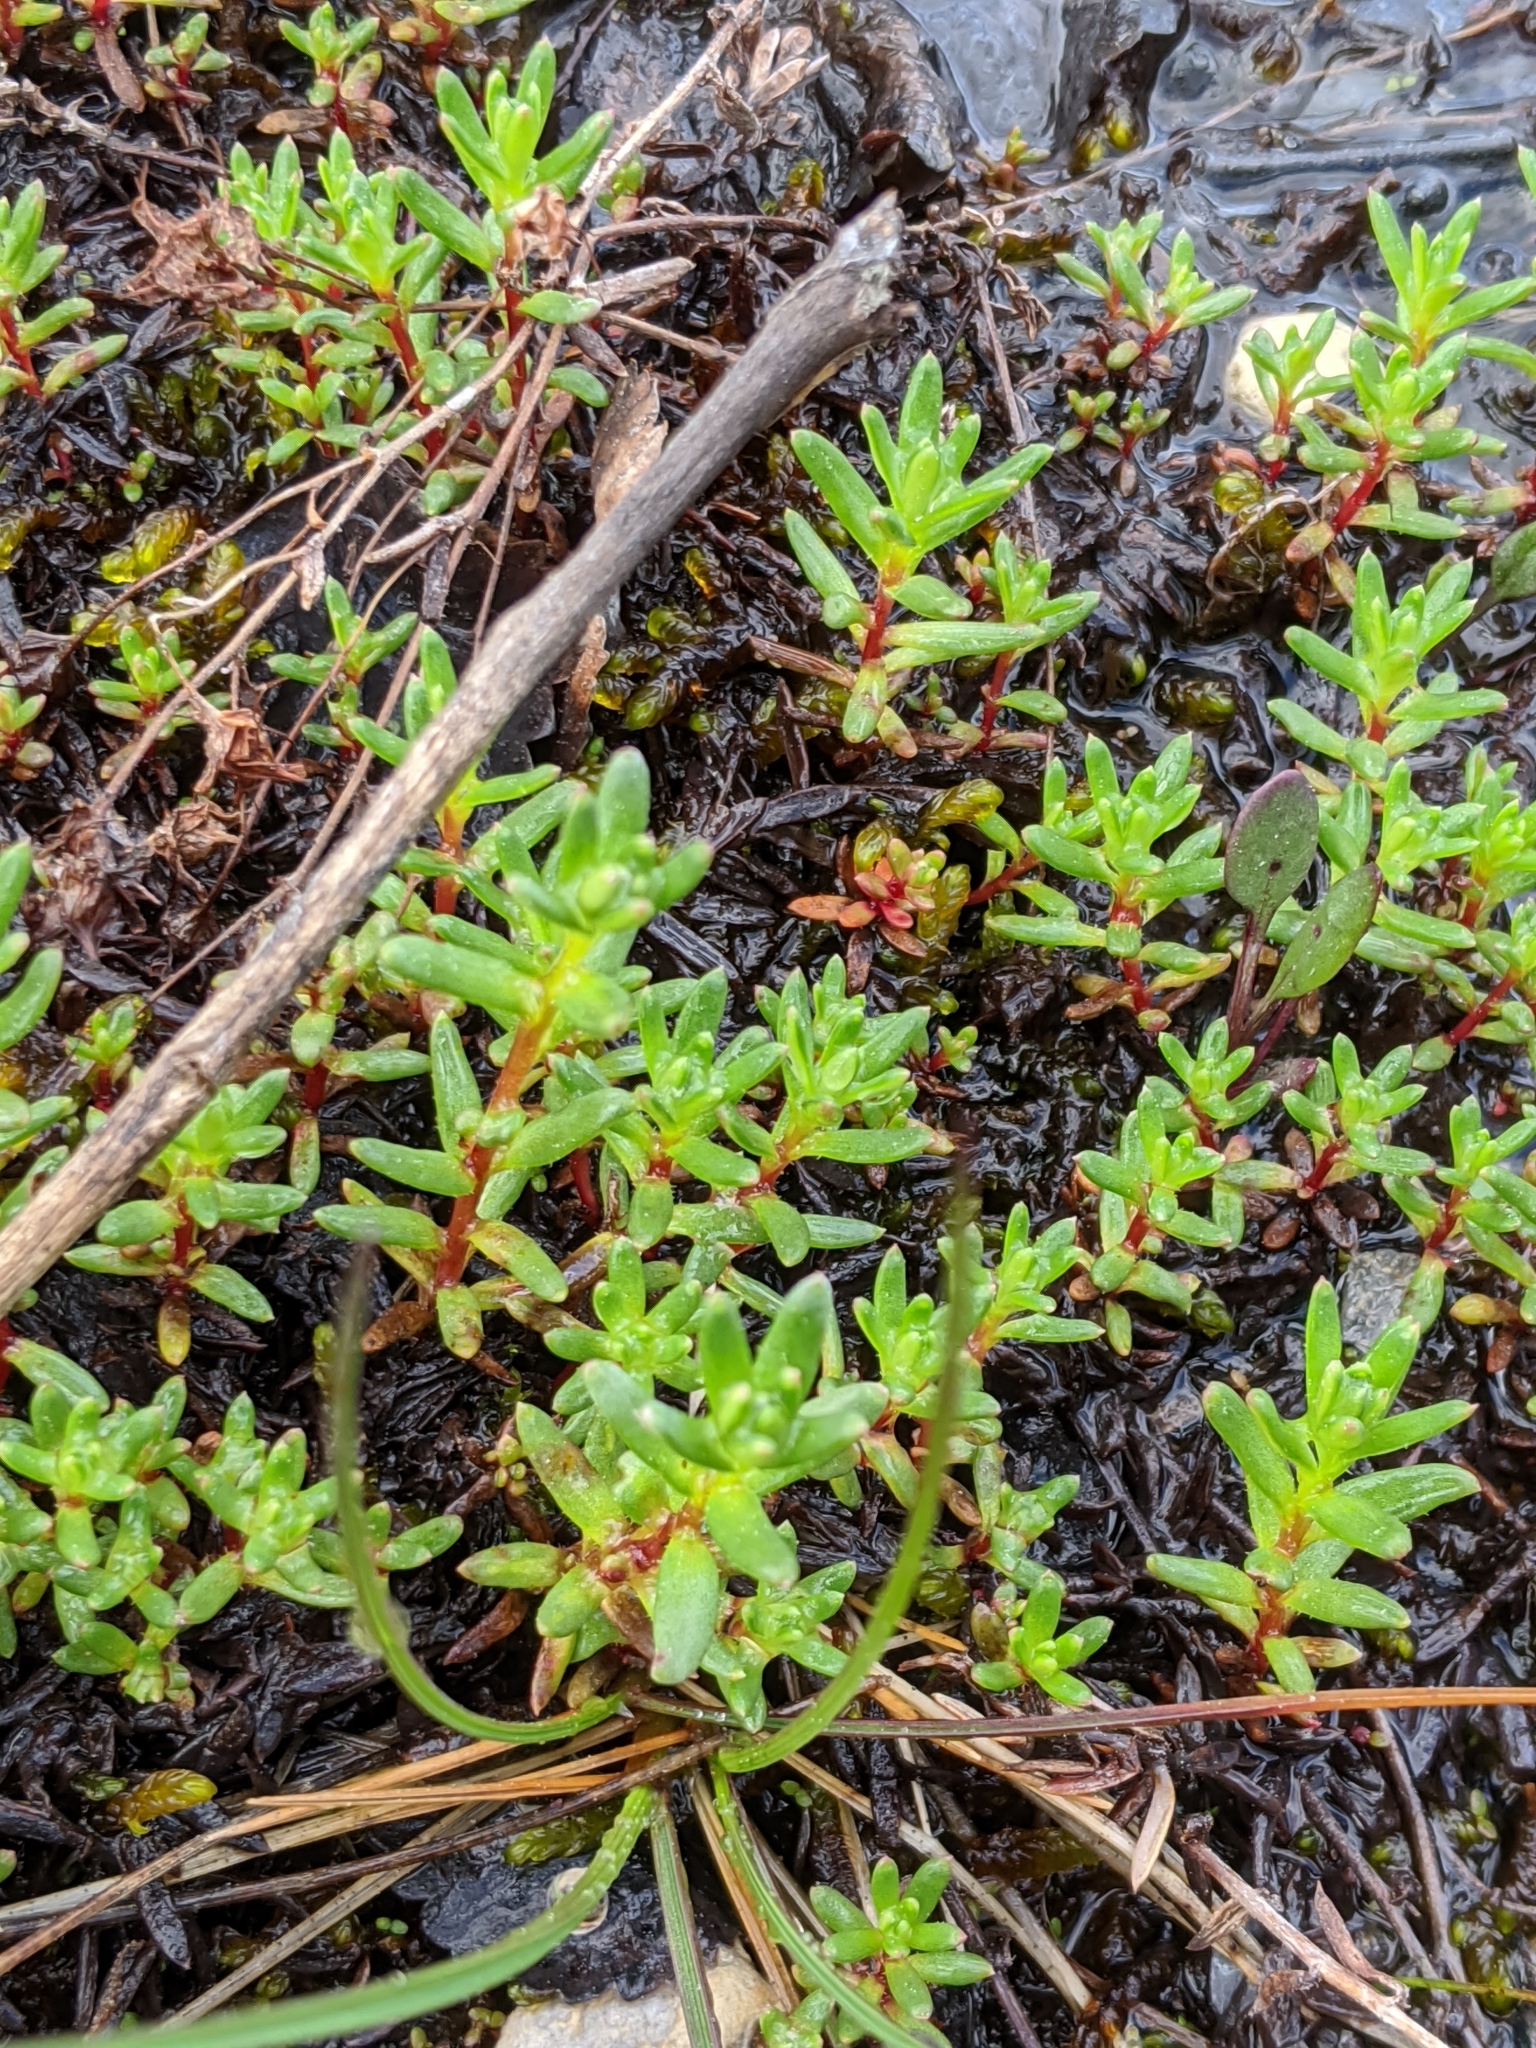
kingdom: Plantae
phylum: Tracheophyta
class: Magnoliopsida
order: Saxifragales
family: Saxifragaceae
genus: Saxifraga
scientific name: Saxifraga aizoides
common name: Yellow mountain saxifrage
